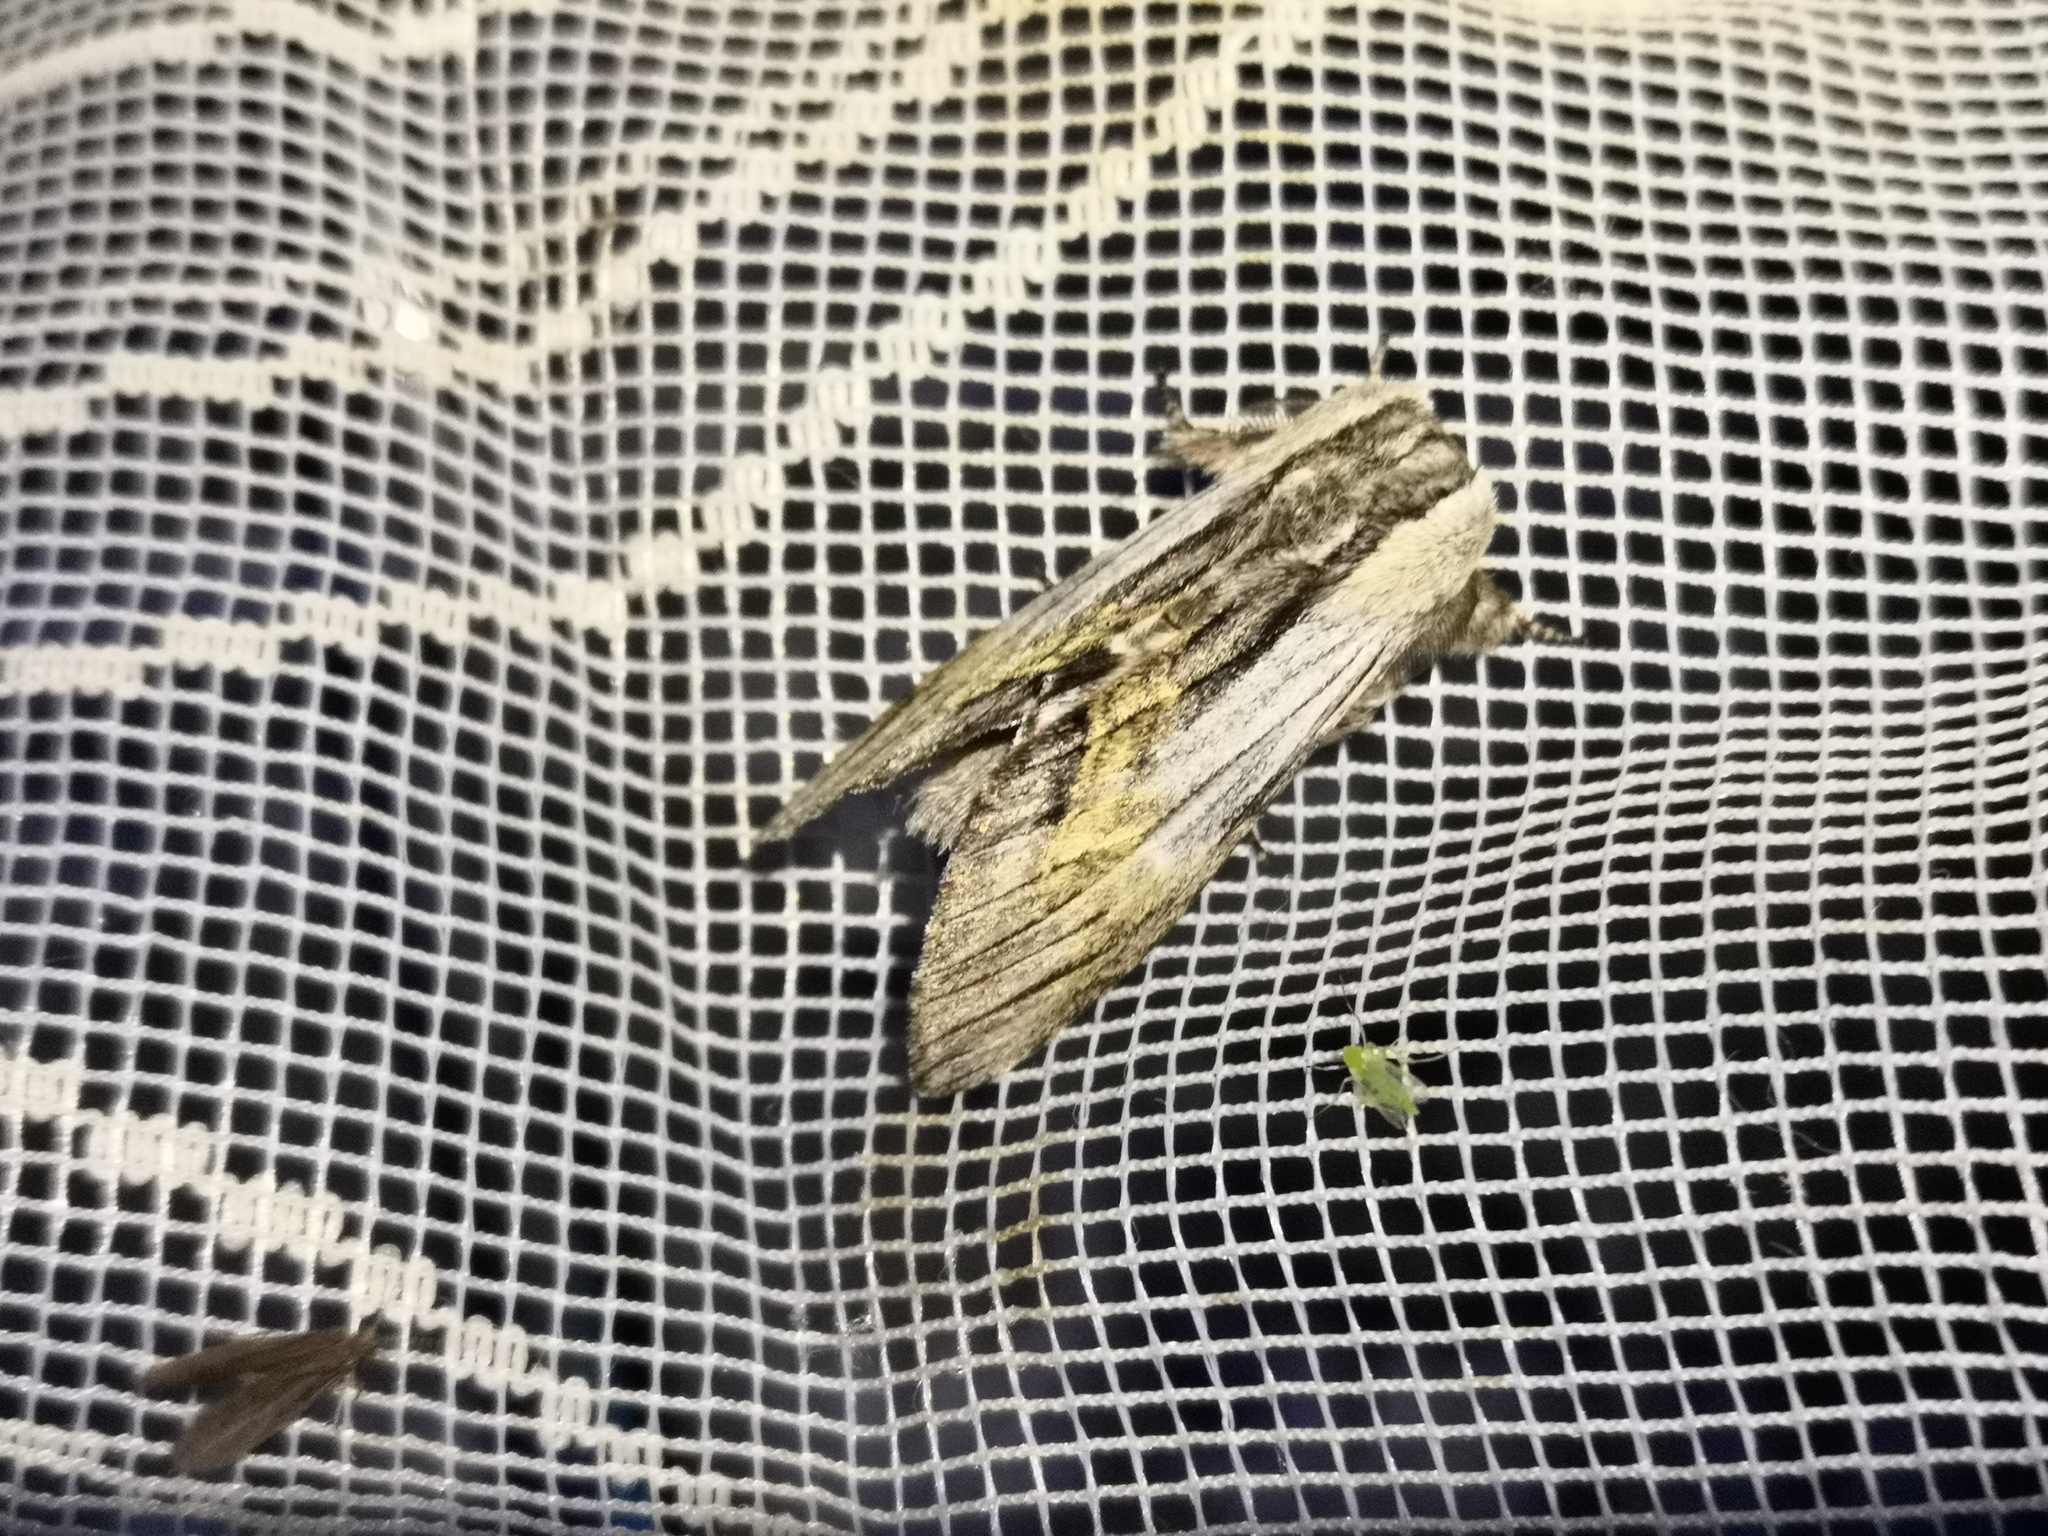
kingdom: Animalia
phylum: Arthropoda
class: Insecta
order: Lepidoptera
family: Notodontidae
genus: Harpyia
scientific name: Harpyia milhauseri
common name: Tawny prominent
